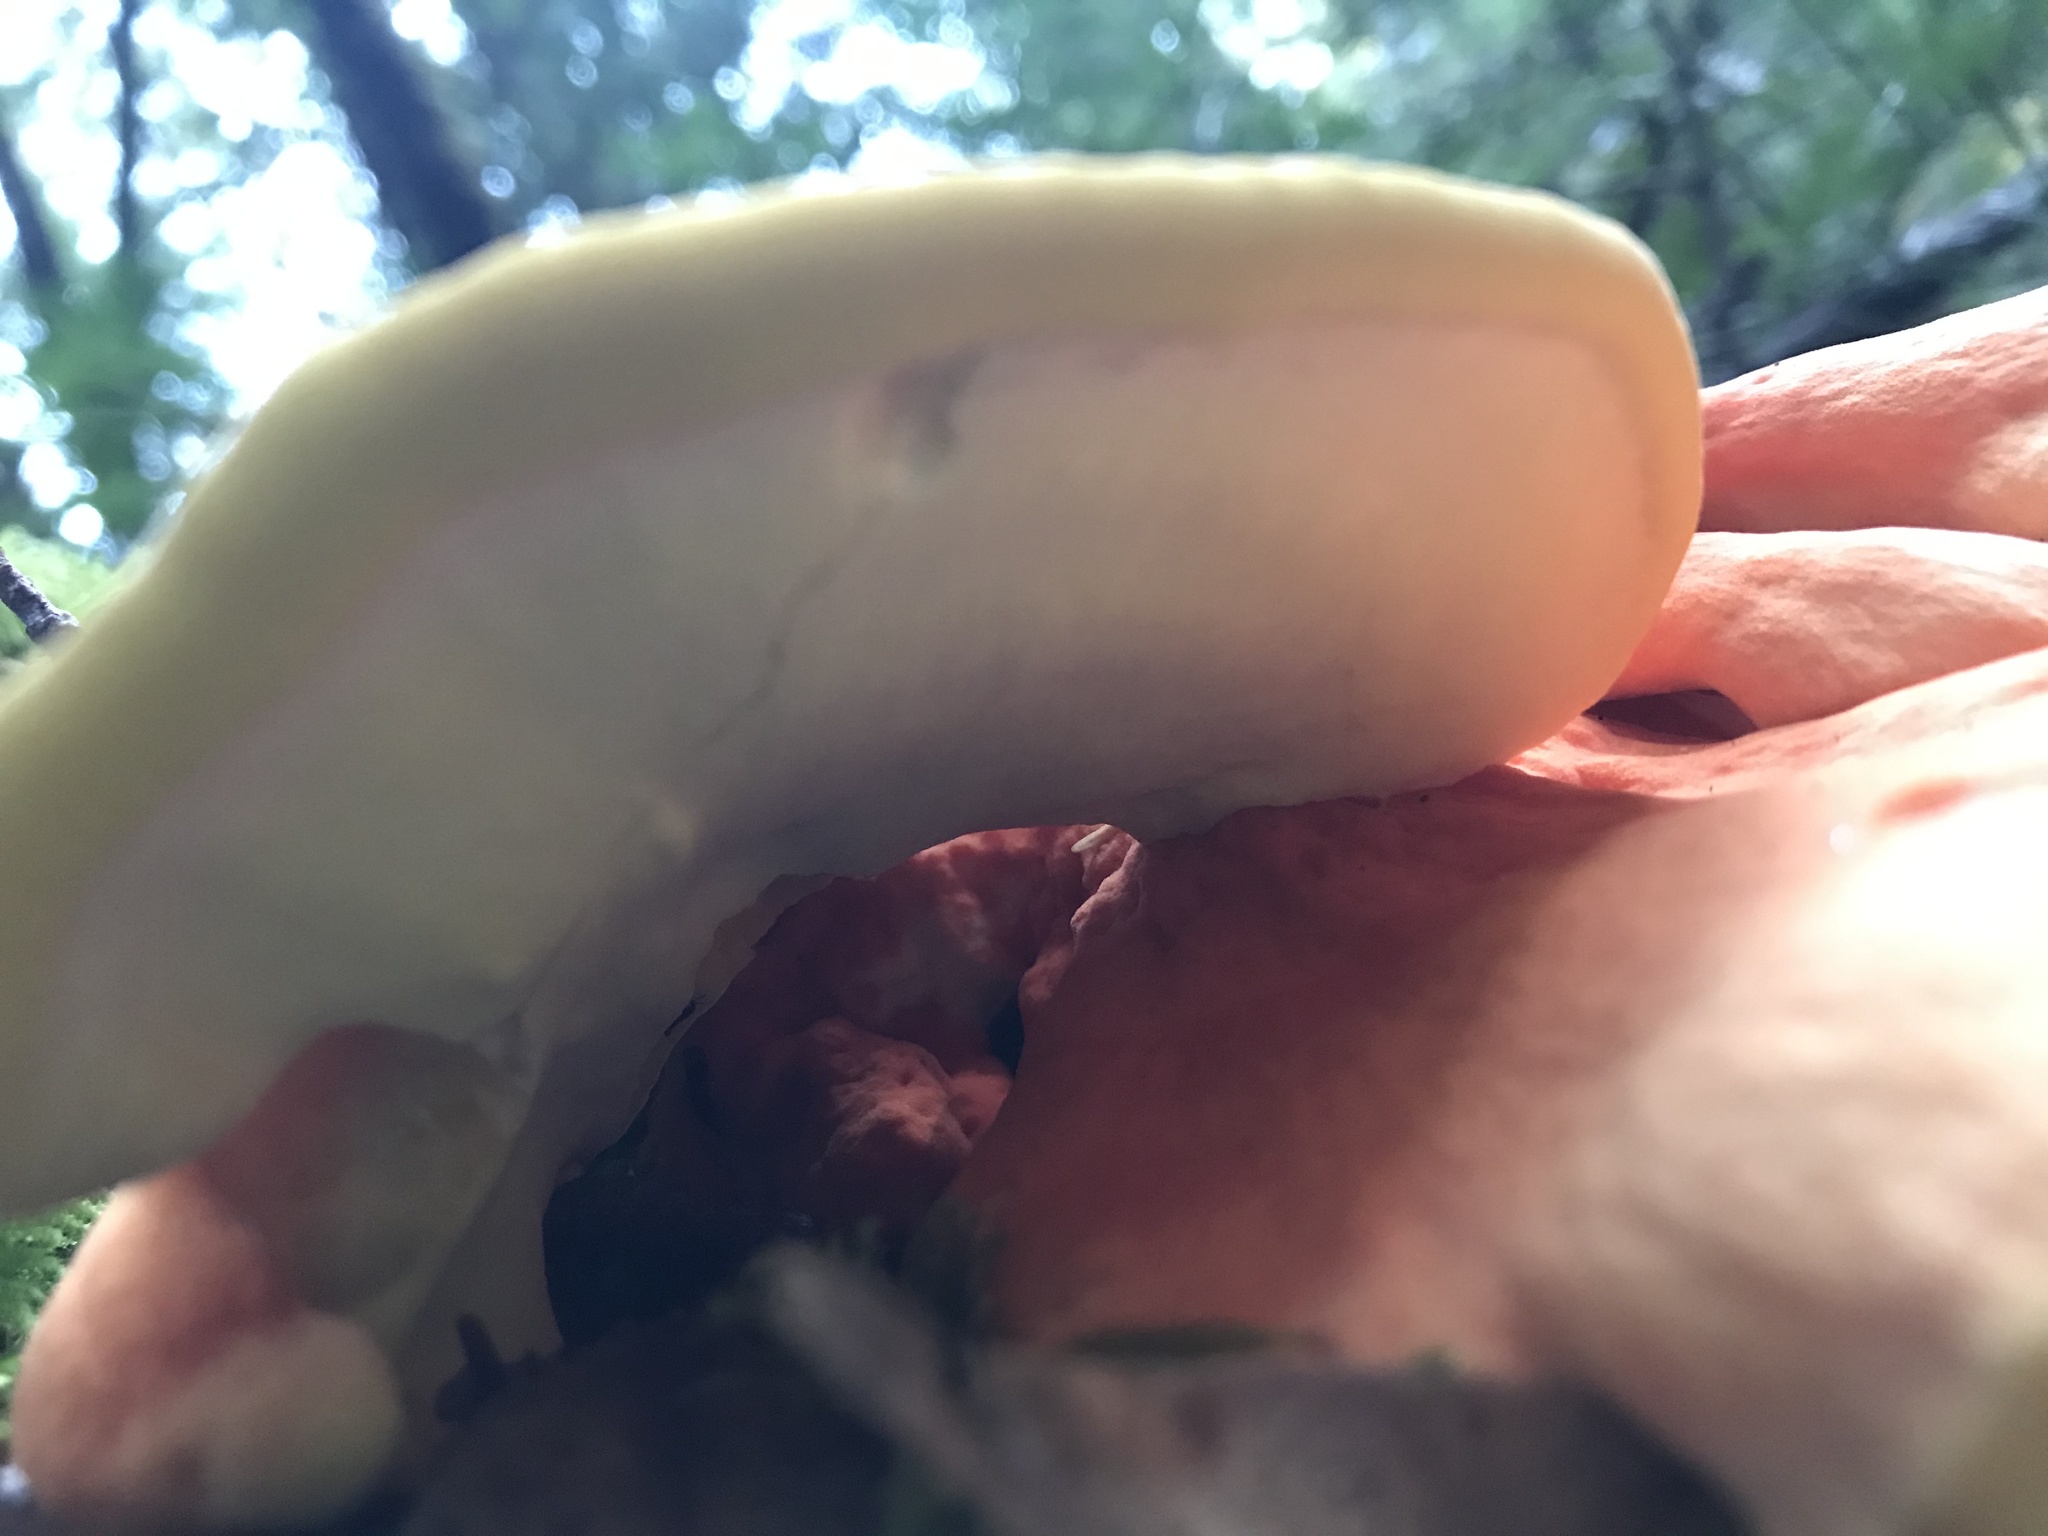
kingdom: Fungi
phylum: Basidiomycota
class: Agaricomycetes
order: Polyporales
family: Laetiporaceae
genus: Laetiporus
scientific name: Laetiporus conifericola
